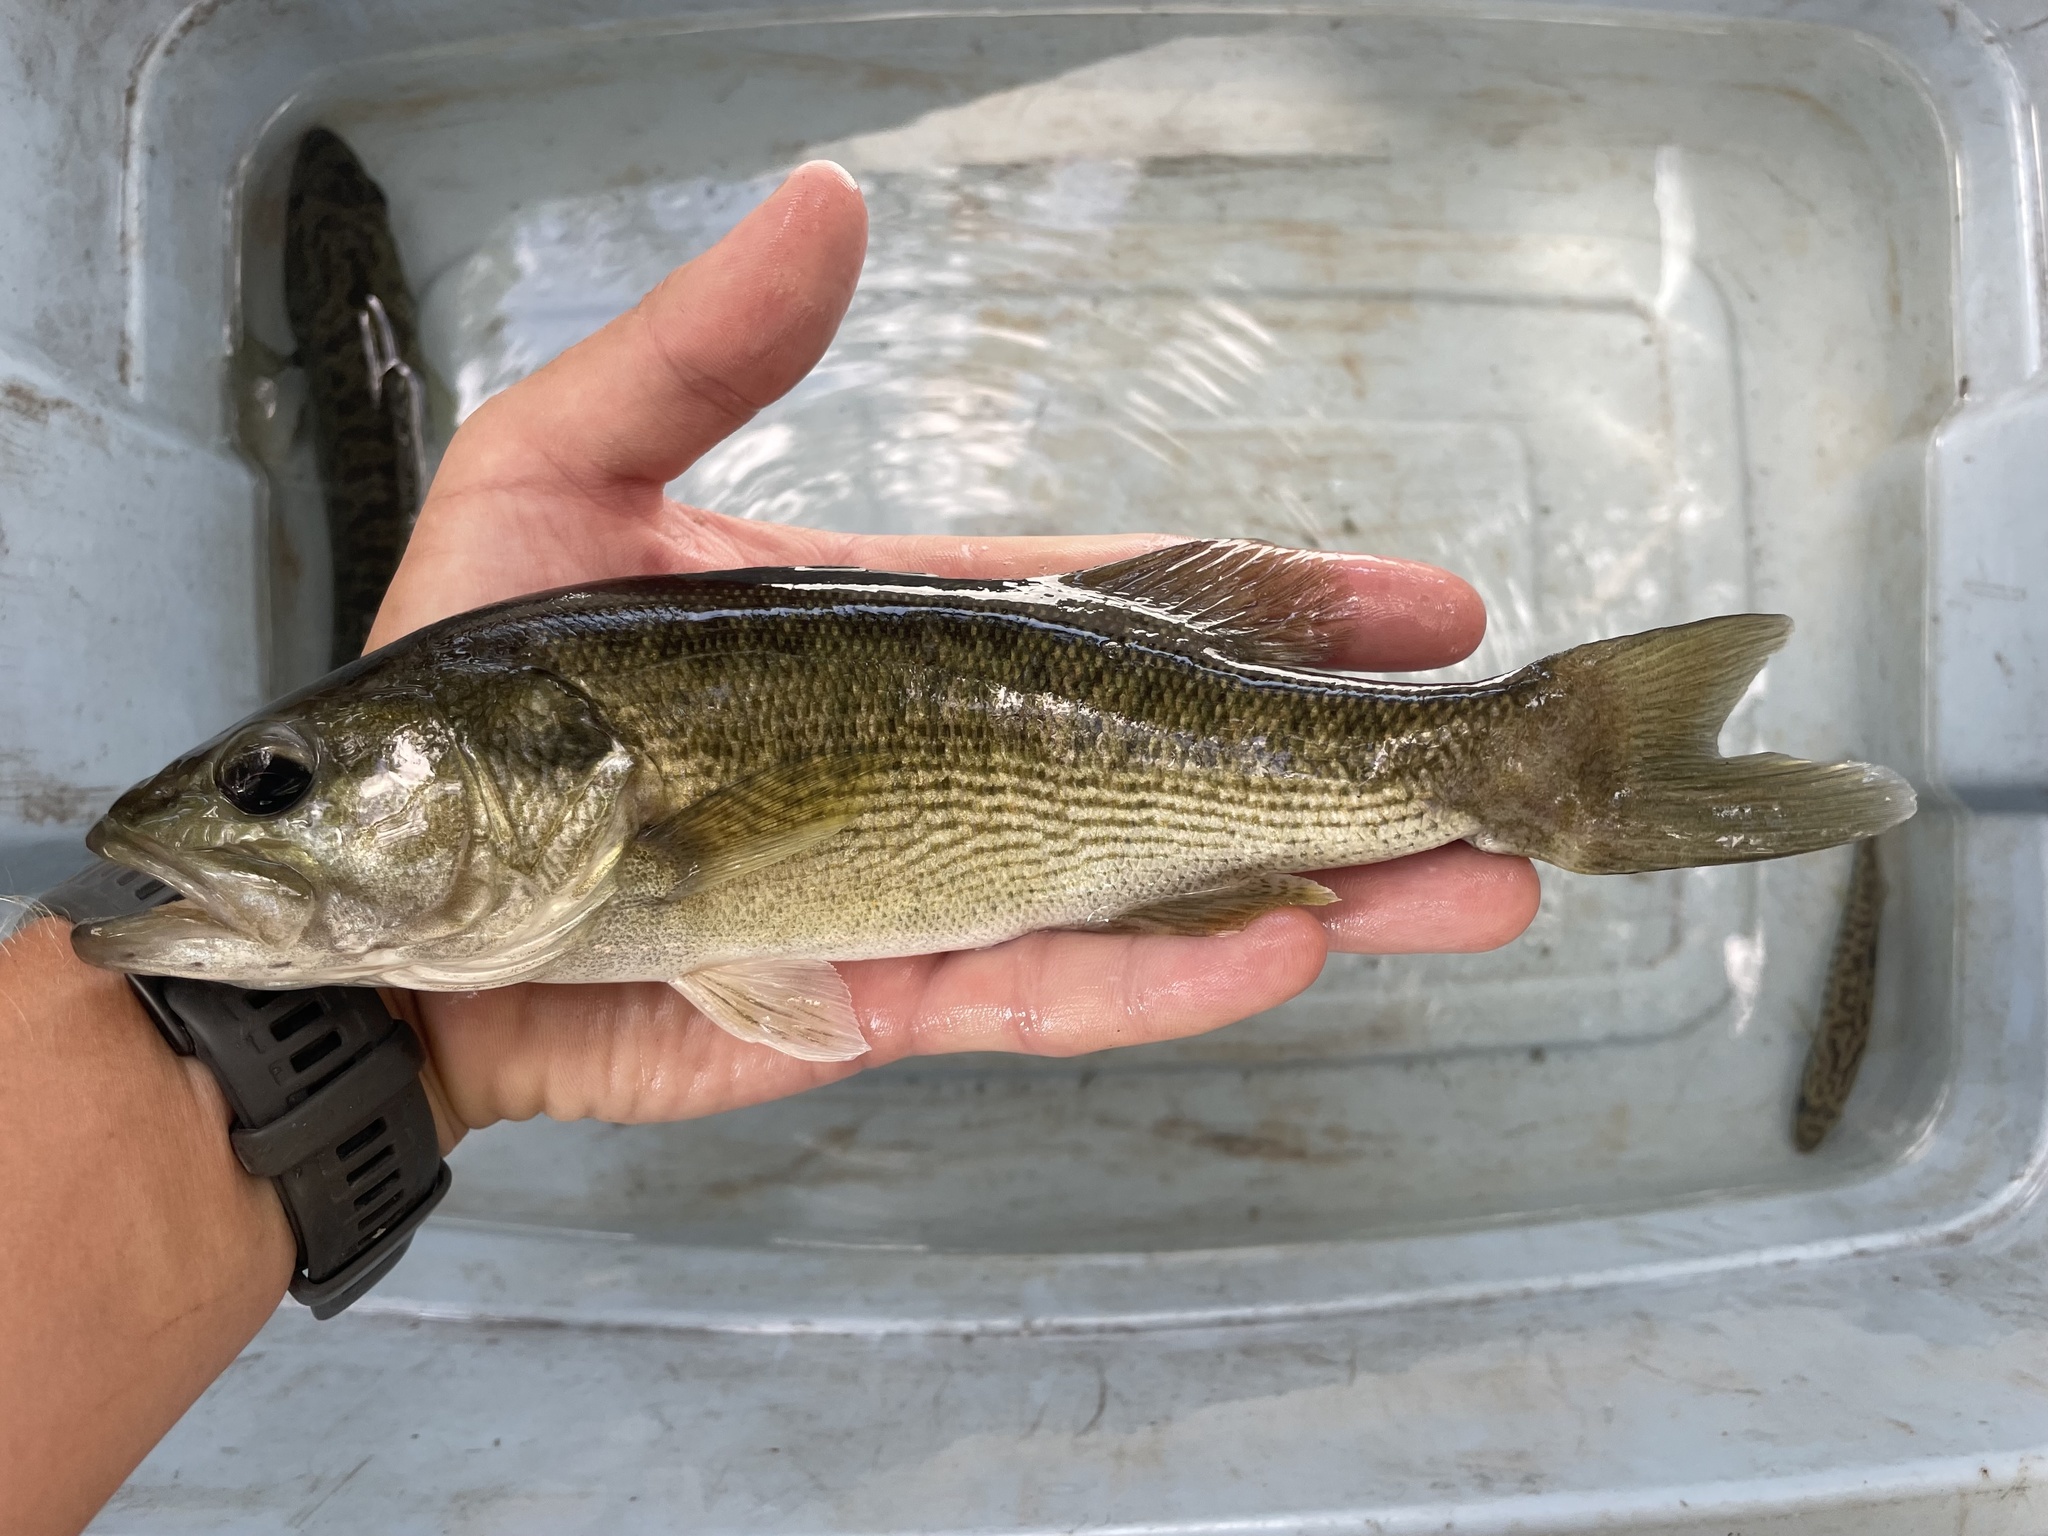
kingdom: Animalia
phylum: Chordata
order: Perciformes
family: Centrarchidae
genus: Micropterus
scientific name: Micropterus treculii
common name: Guadalupe bass
